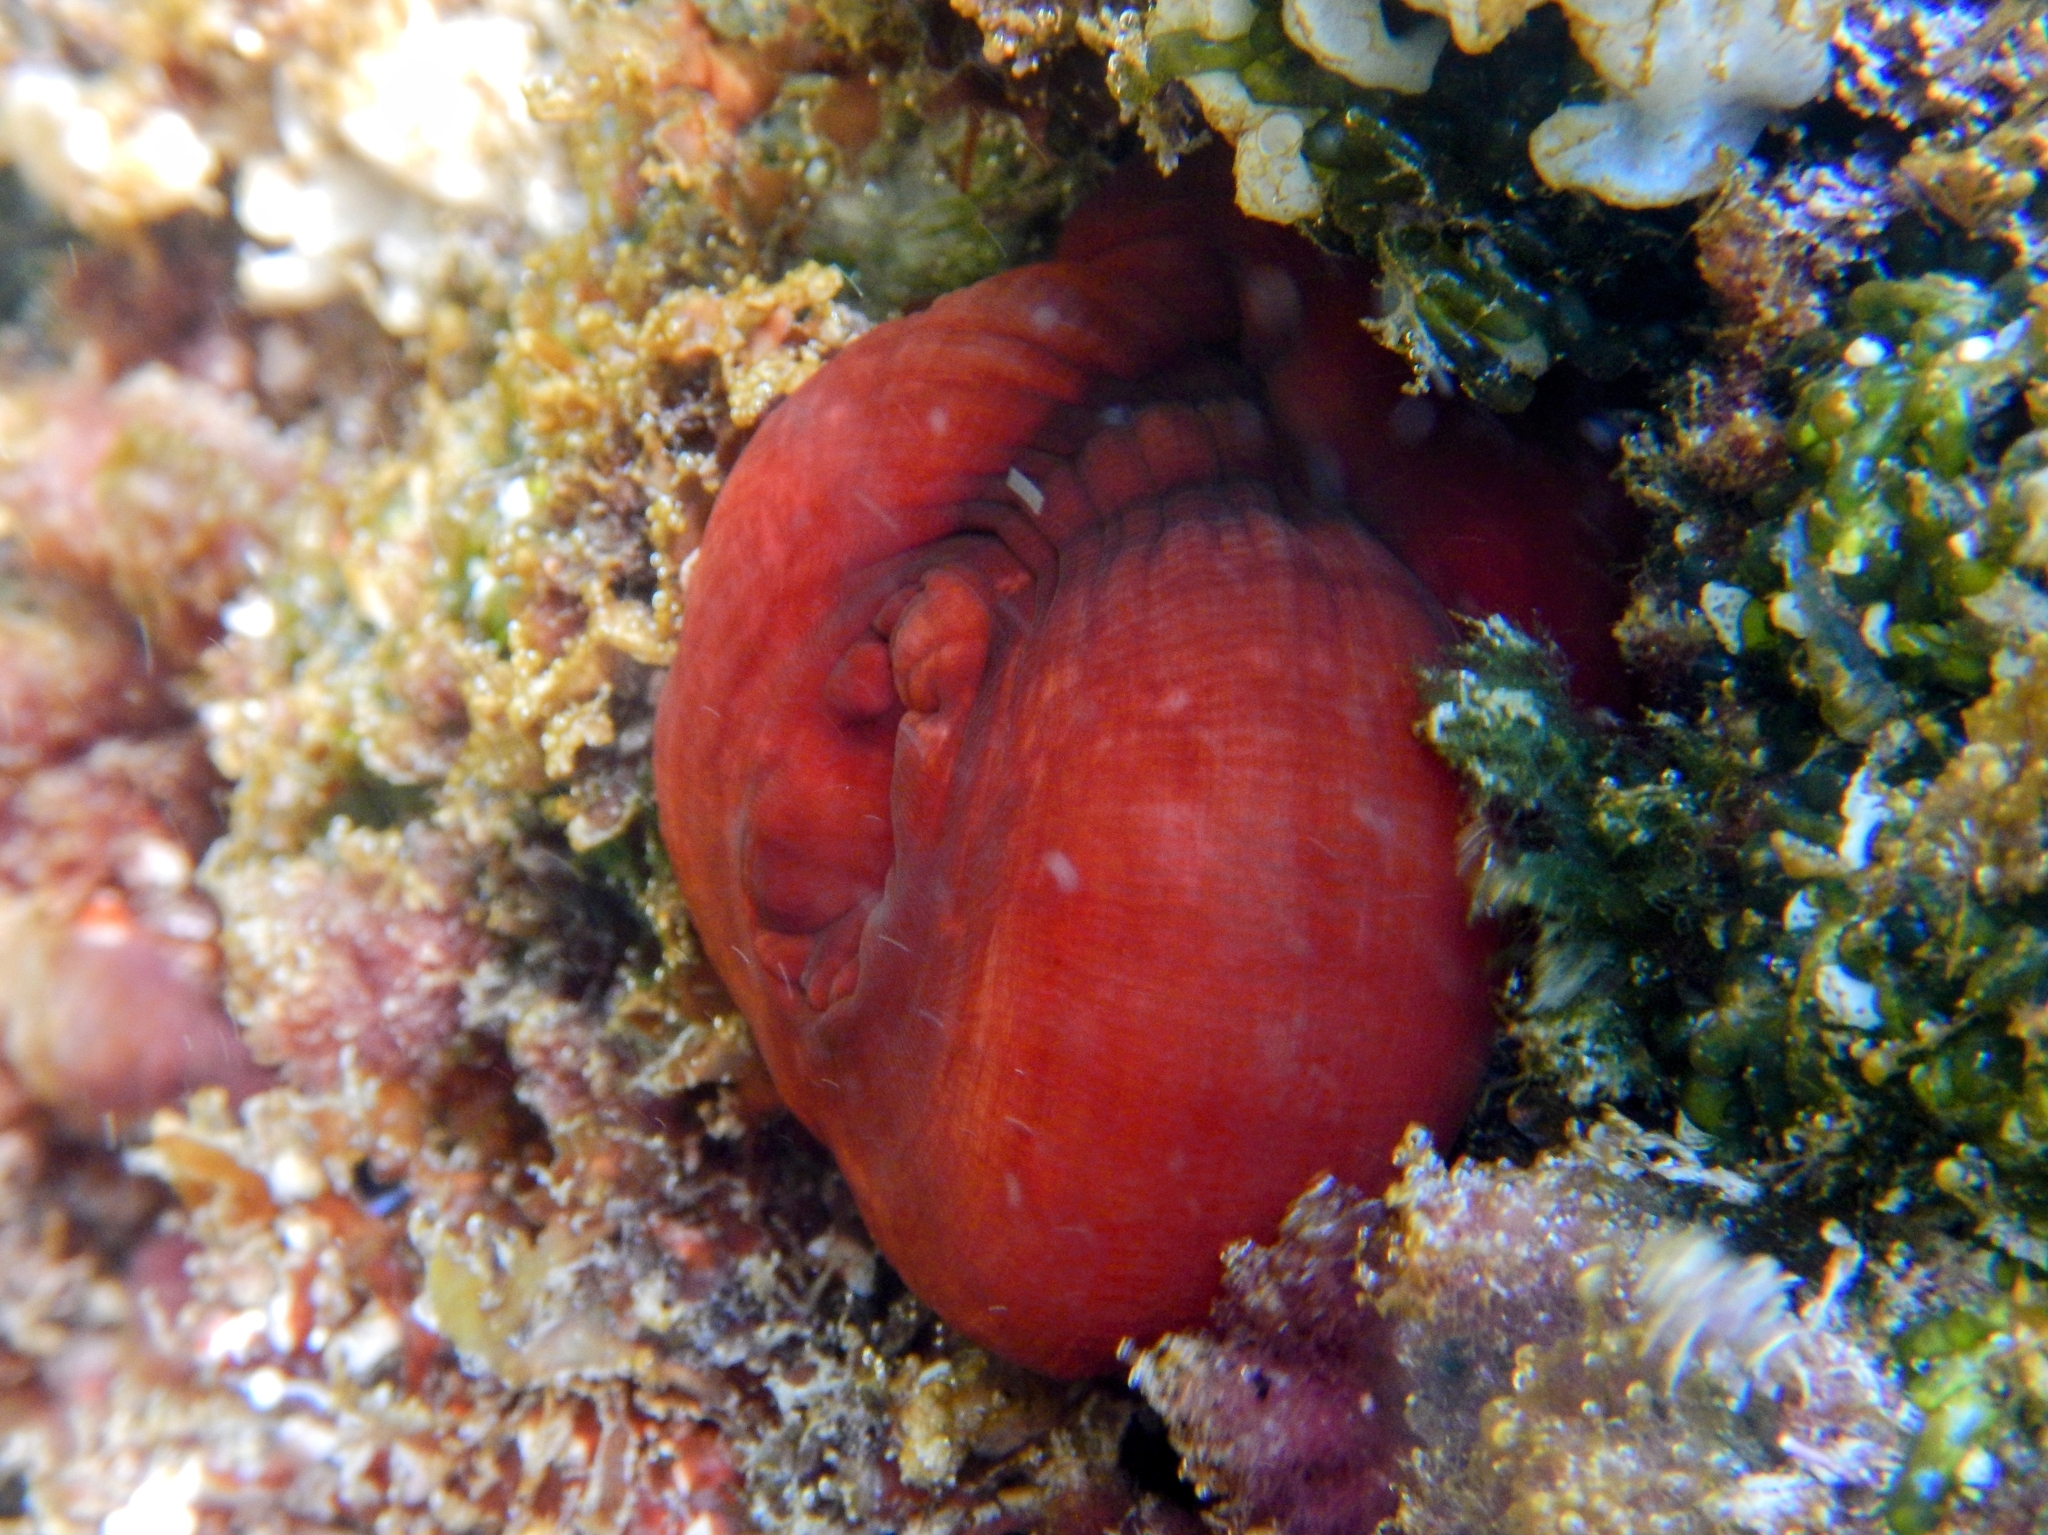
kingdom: Animalia
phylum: Cnidaria
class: Anthozoa
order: Actiniaria
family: Actiniidae
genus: Actinia
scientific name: Actinia mediterranea
